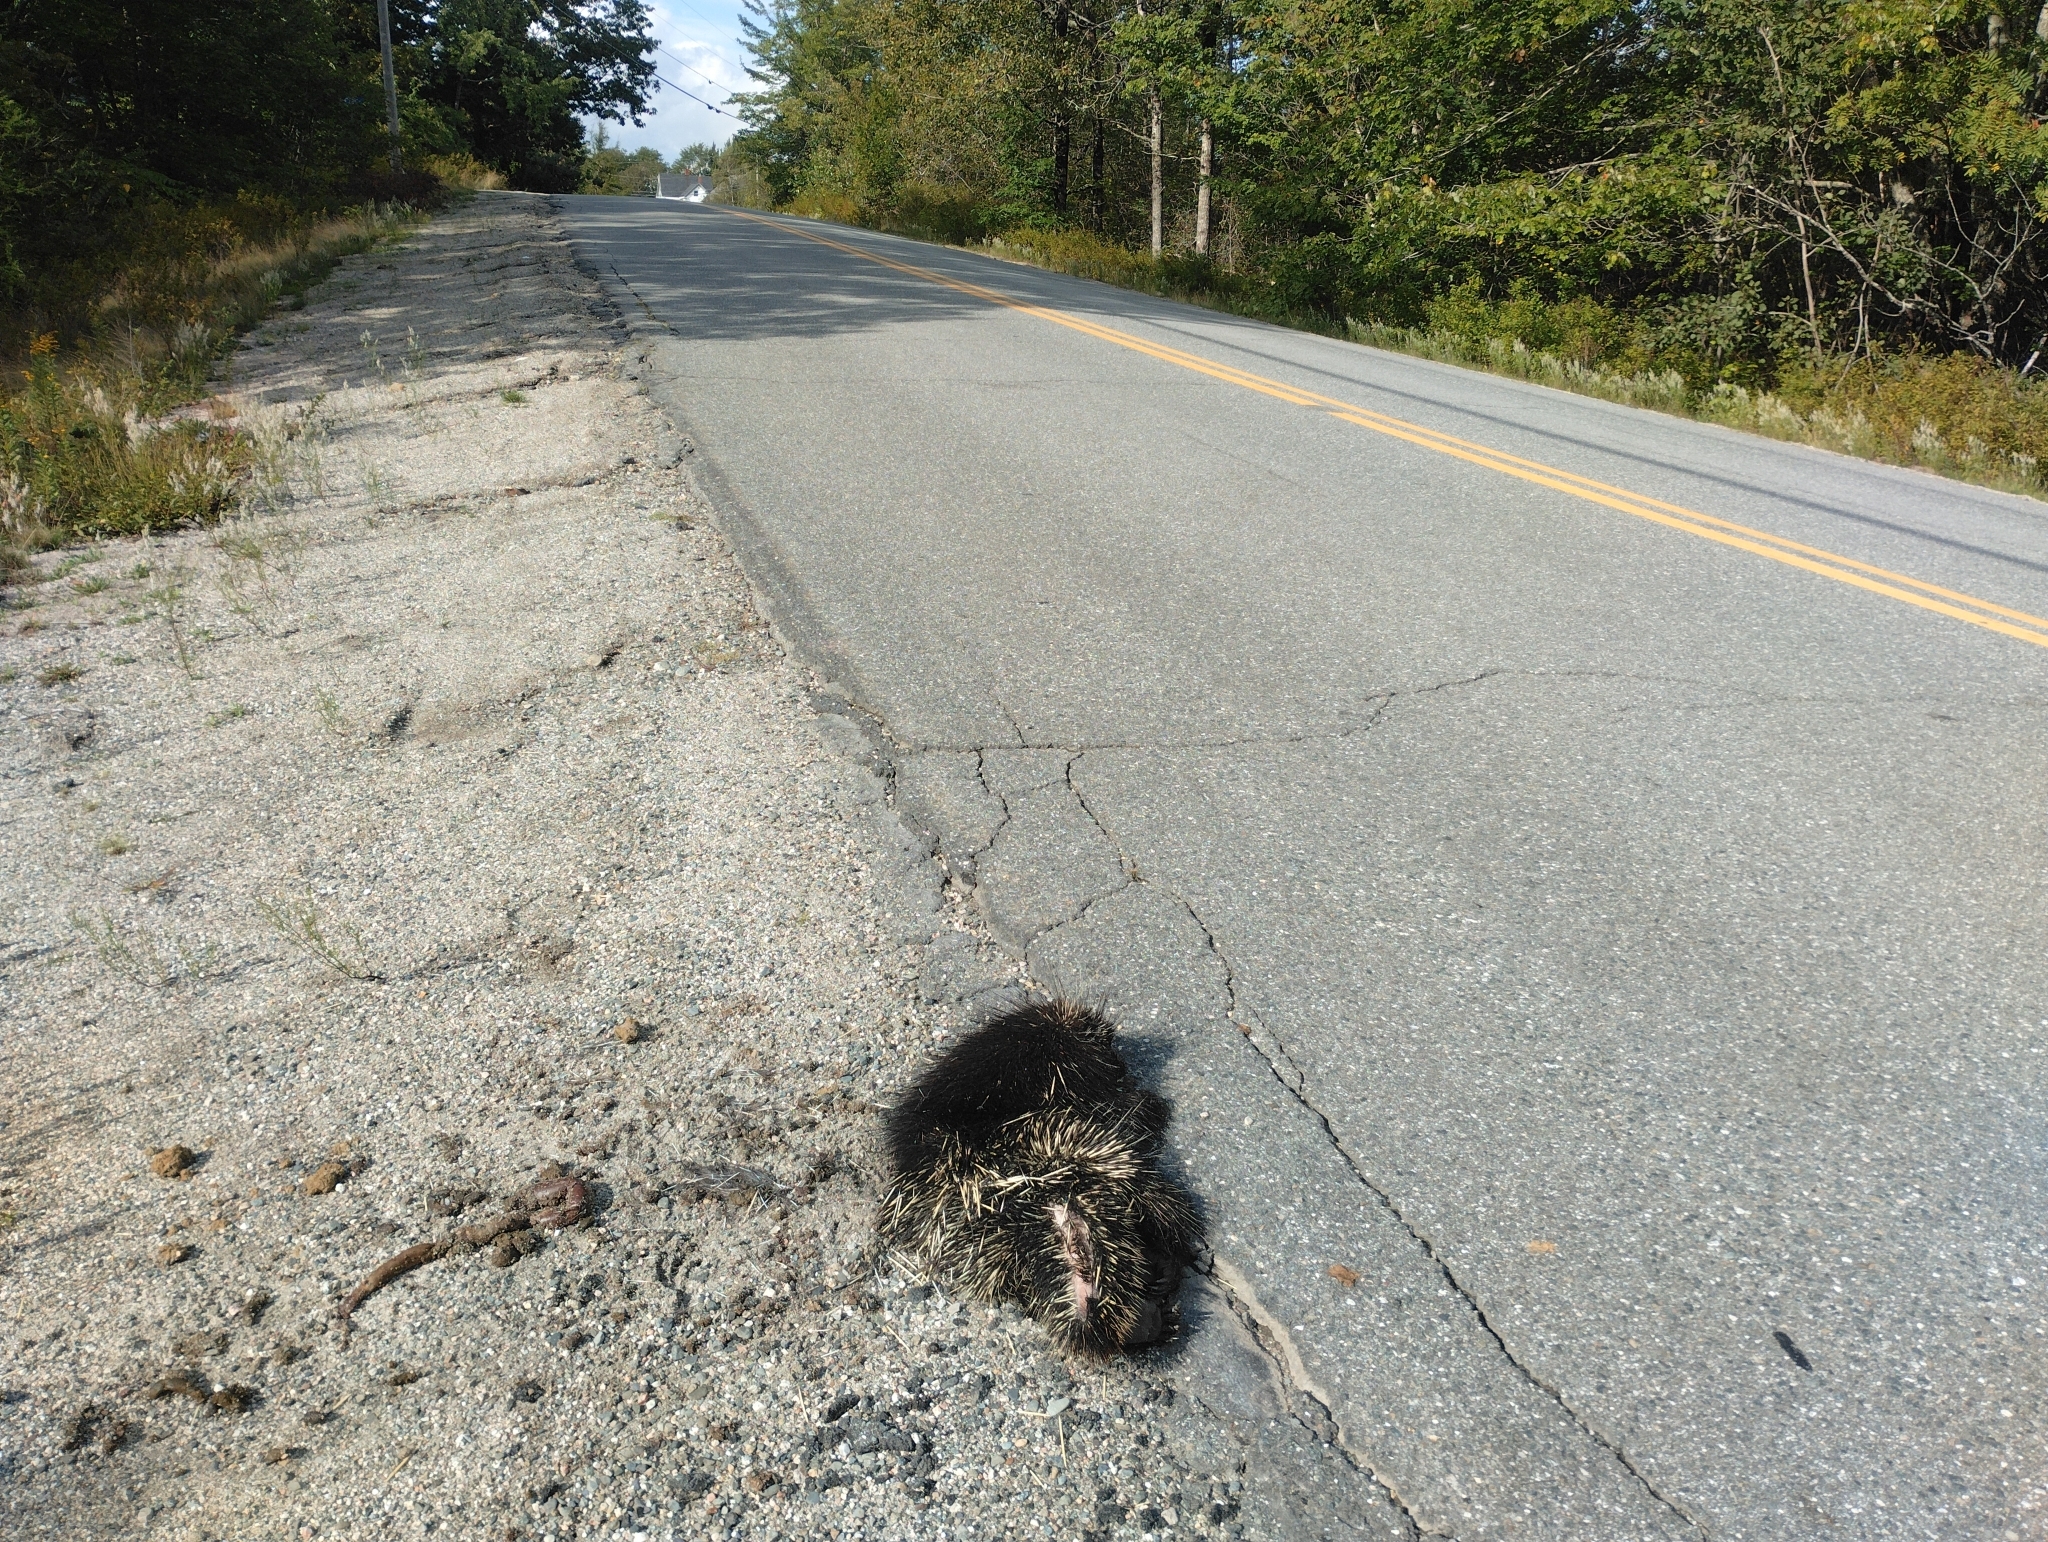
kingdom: Animalia
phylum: Chordata
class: Mammalia
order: Rodentia
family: Erethizontidae
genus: Erethizon
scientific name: Erethizon dorsatus
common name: North american porcupine
